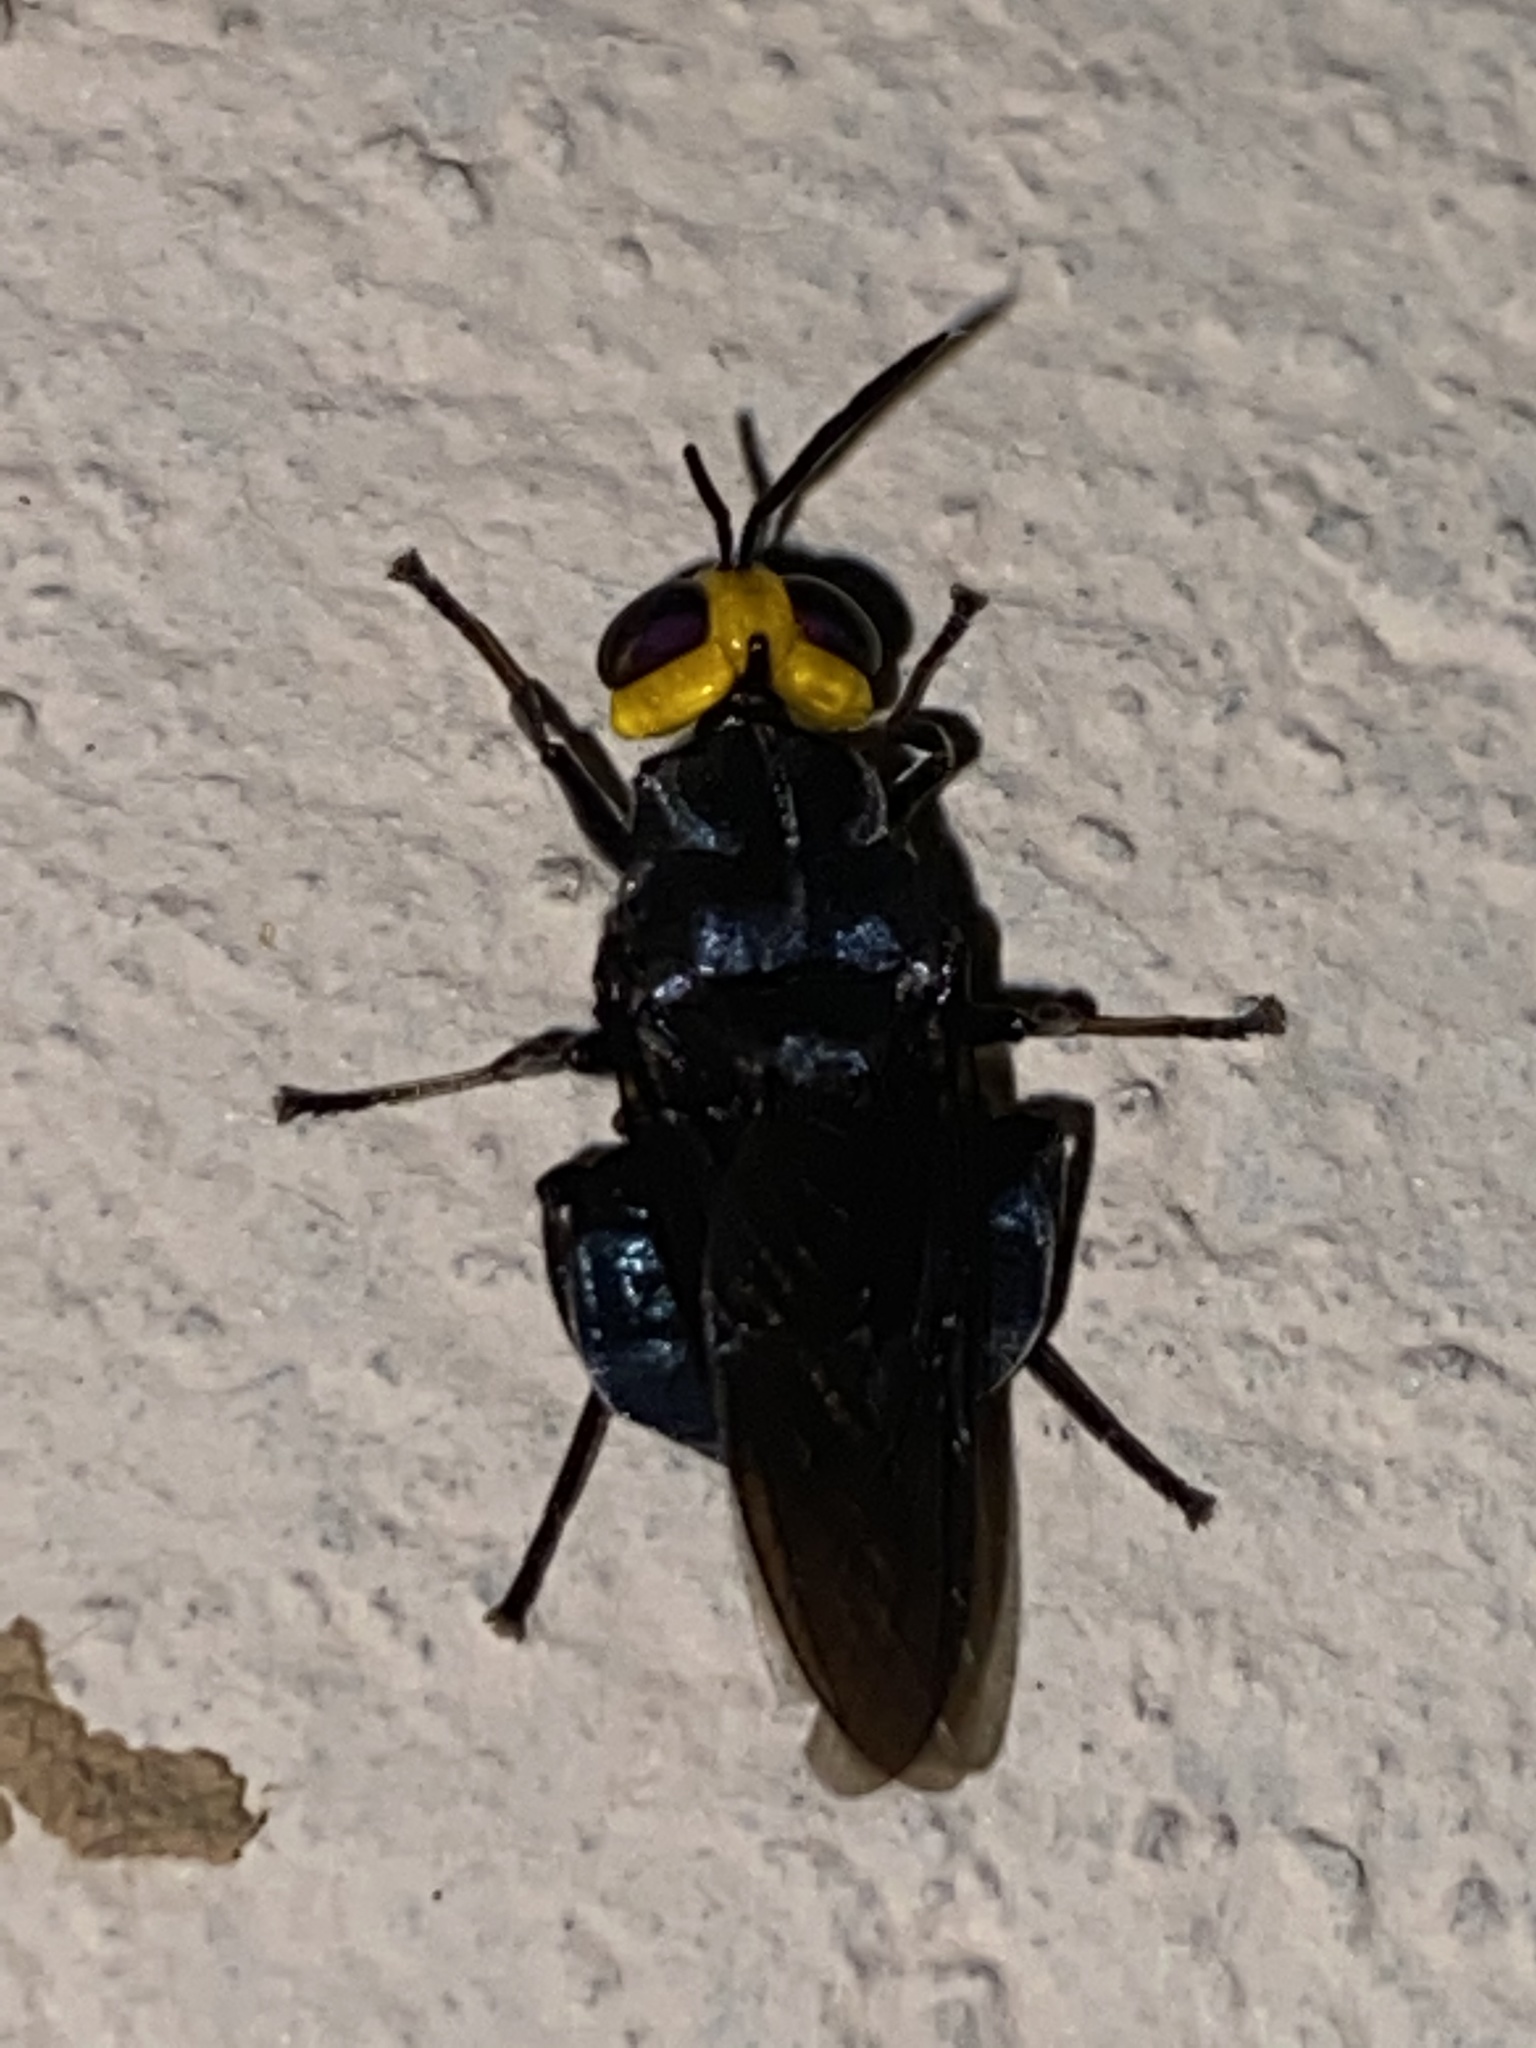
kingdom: Animalia
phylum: Arthropoda
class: Insecta
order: Diptera
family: Stratiomyidae
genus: Cyphomyia
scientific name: Cyphomyia leucocephala
